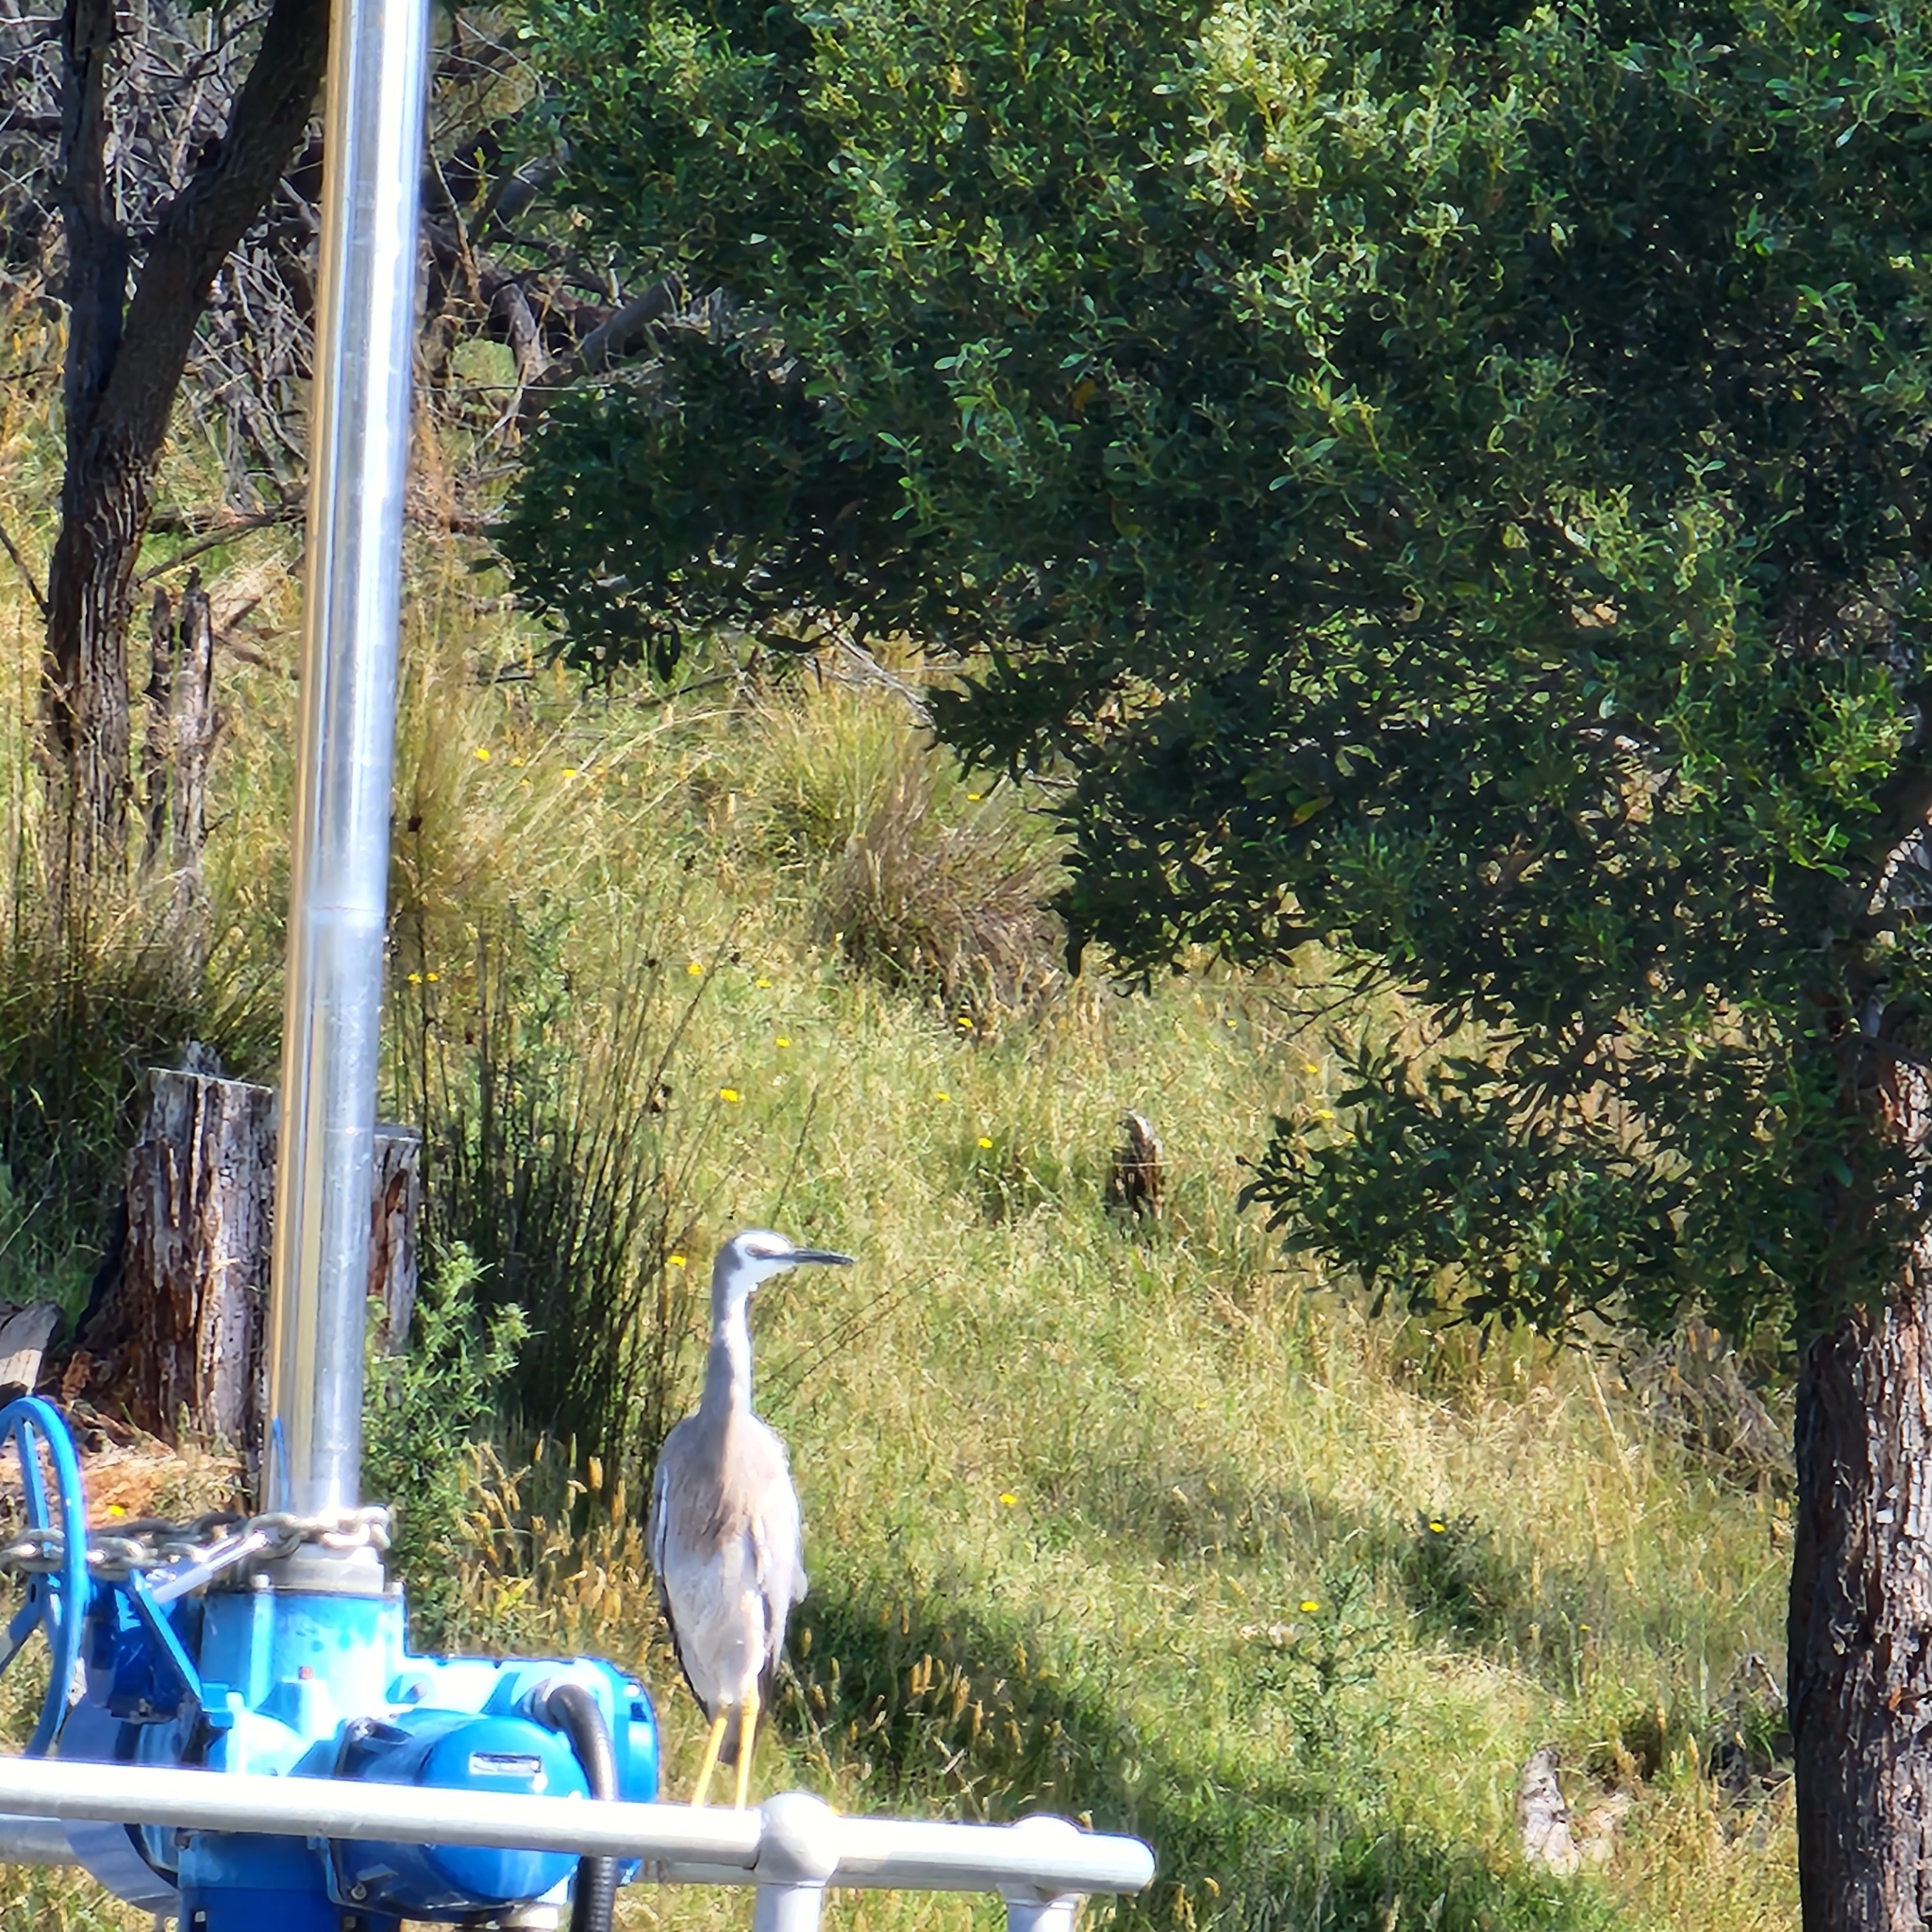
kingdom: Animalia
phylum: Chordata
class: Aves
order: Pelecaniformes
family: Ardeidae
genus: Egretta
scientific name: Egretta novaehollandiae
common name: White-faced heron
